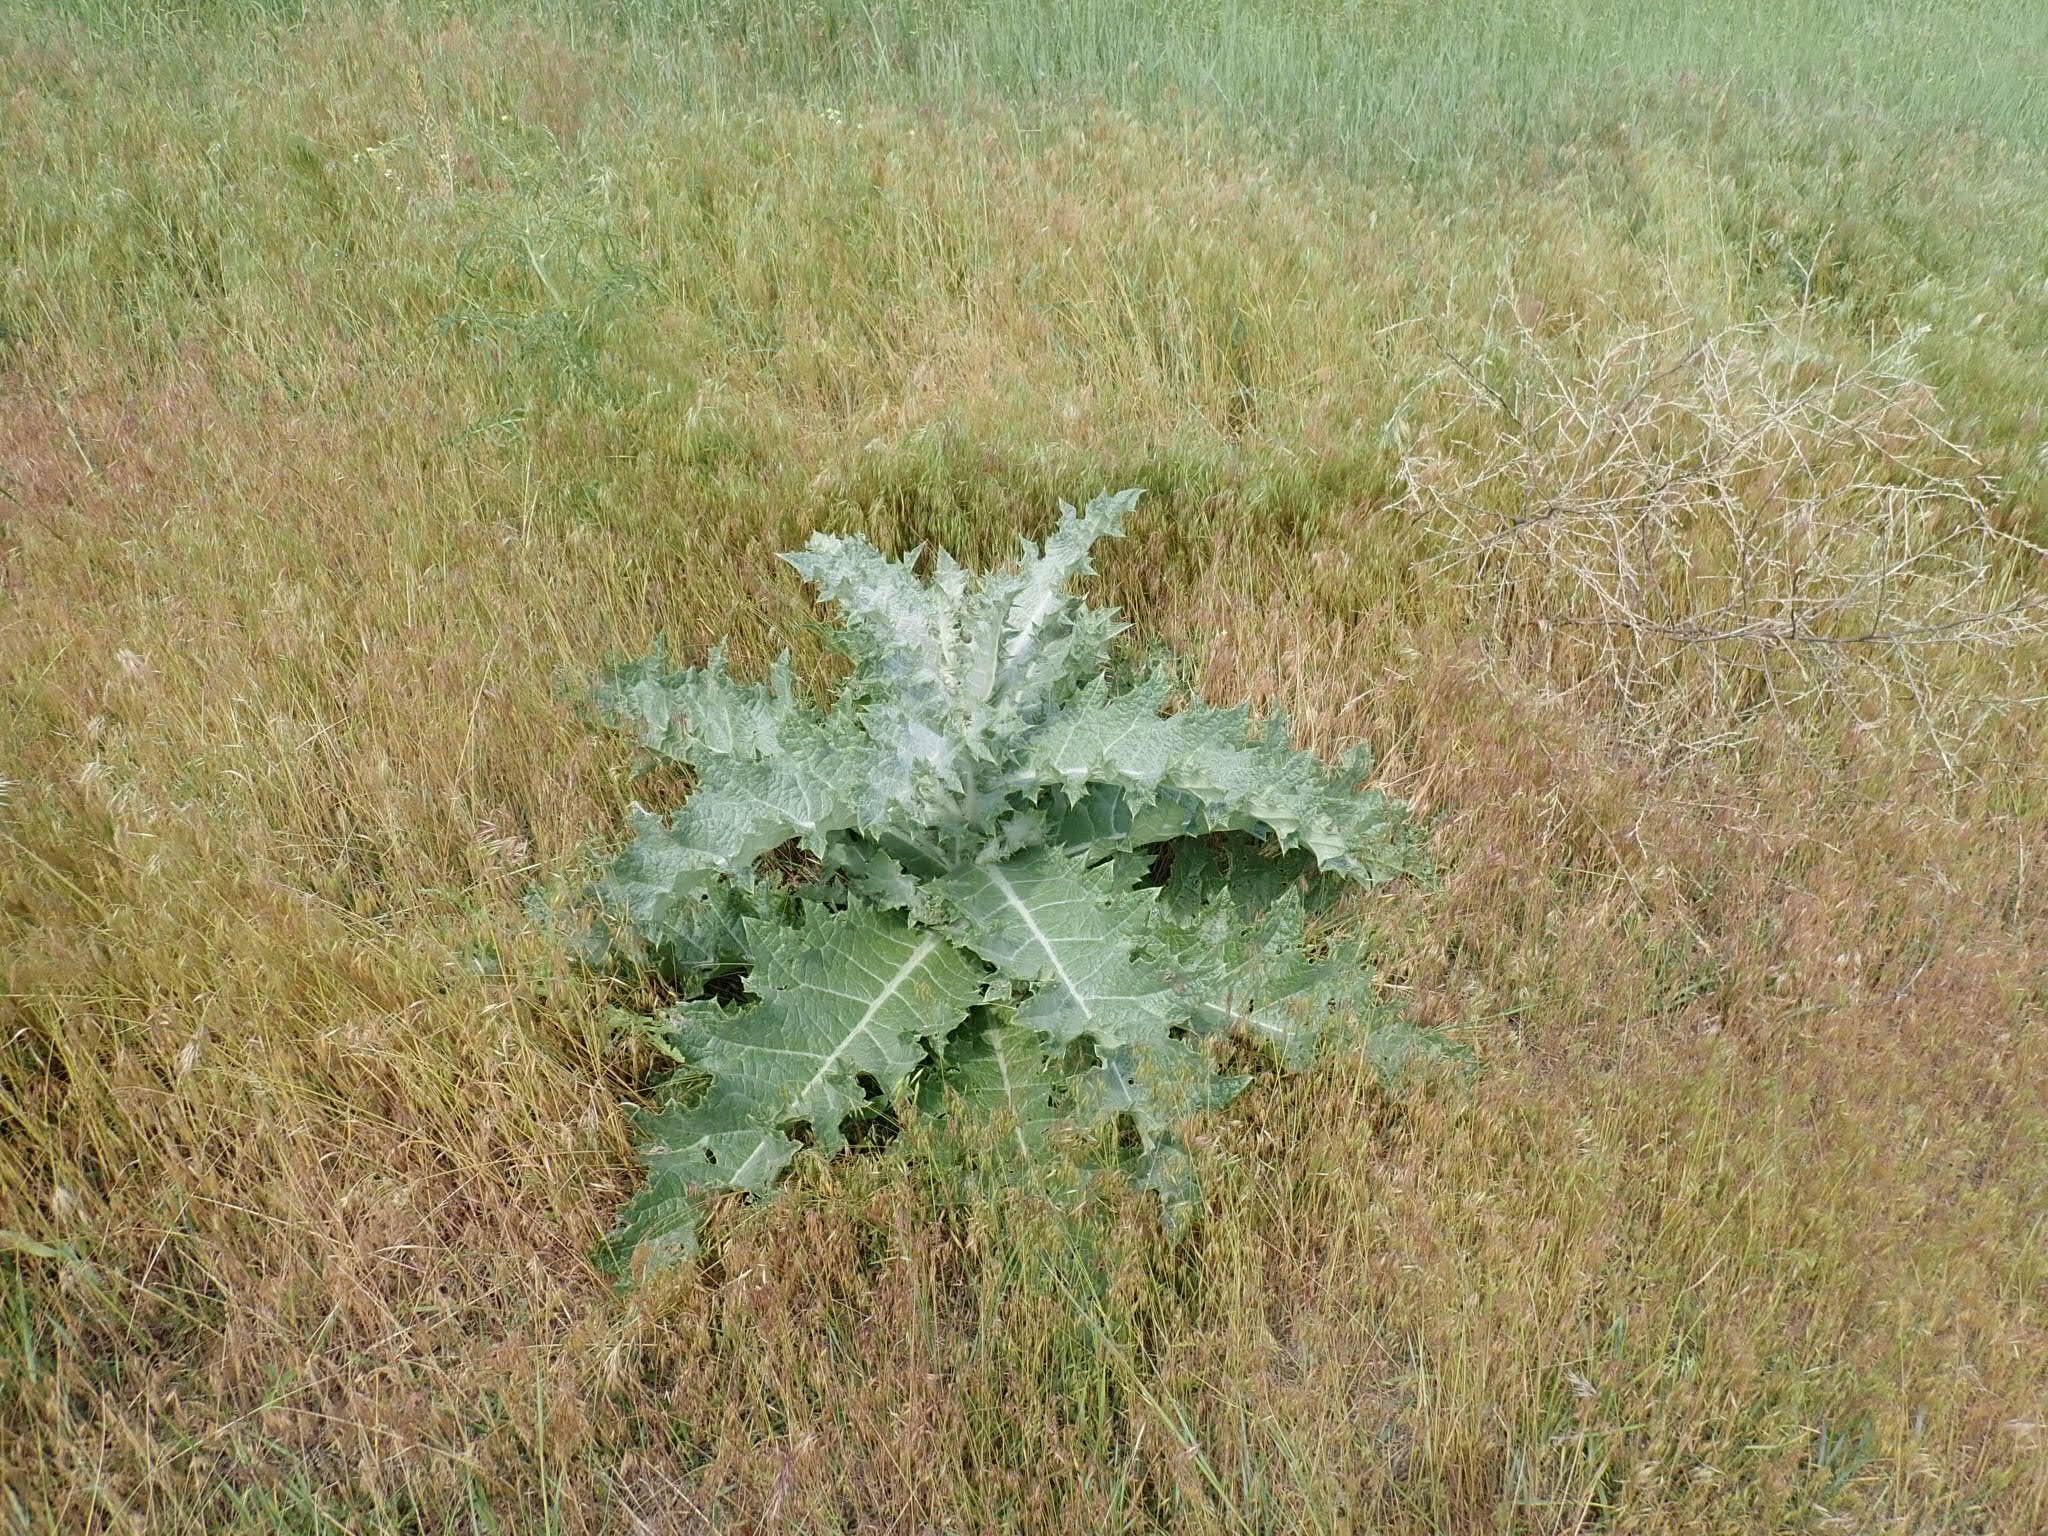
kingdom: Plantae
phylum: Tracheophyta
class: Magnoliopsida
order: Asterales
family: Asteraceae
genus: Onopordum
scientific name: Onopordum acanthium
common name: Scotch thistle
